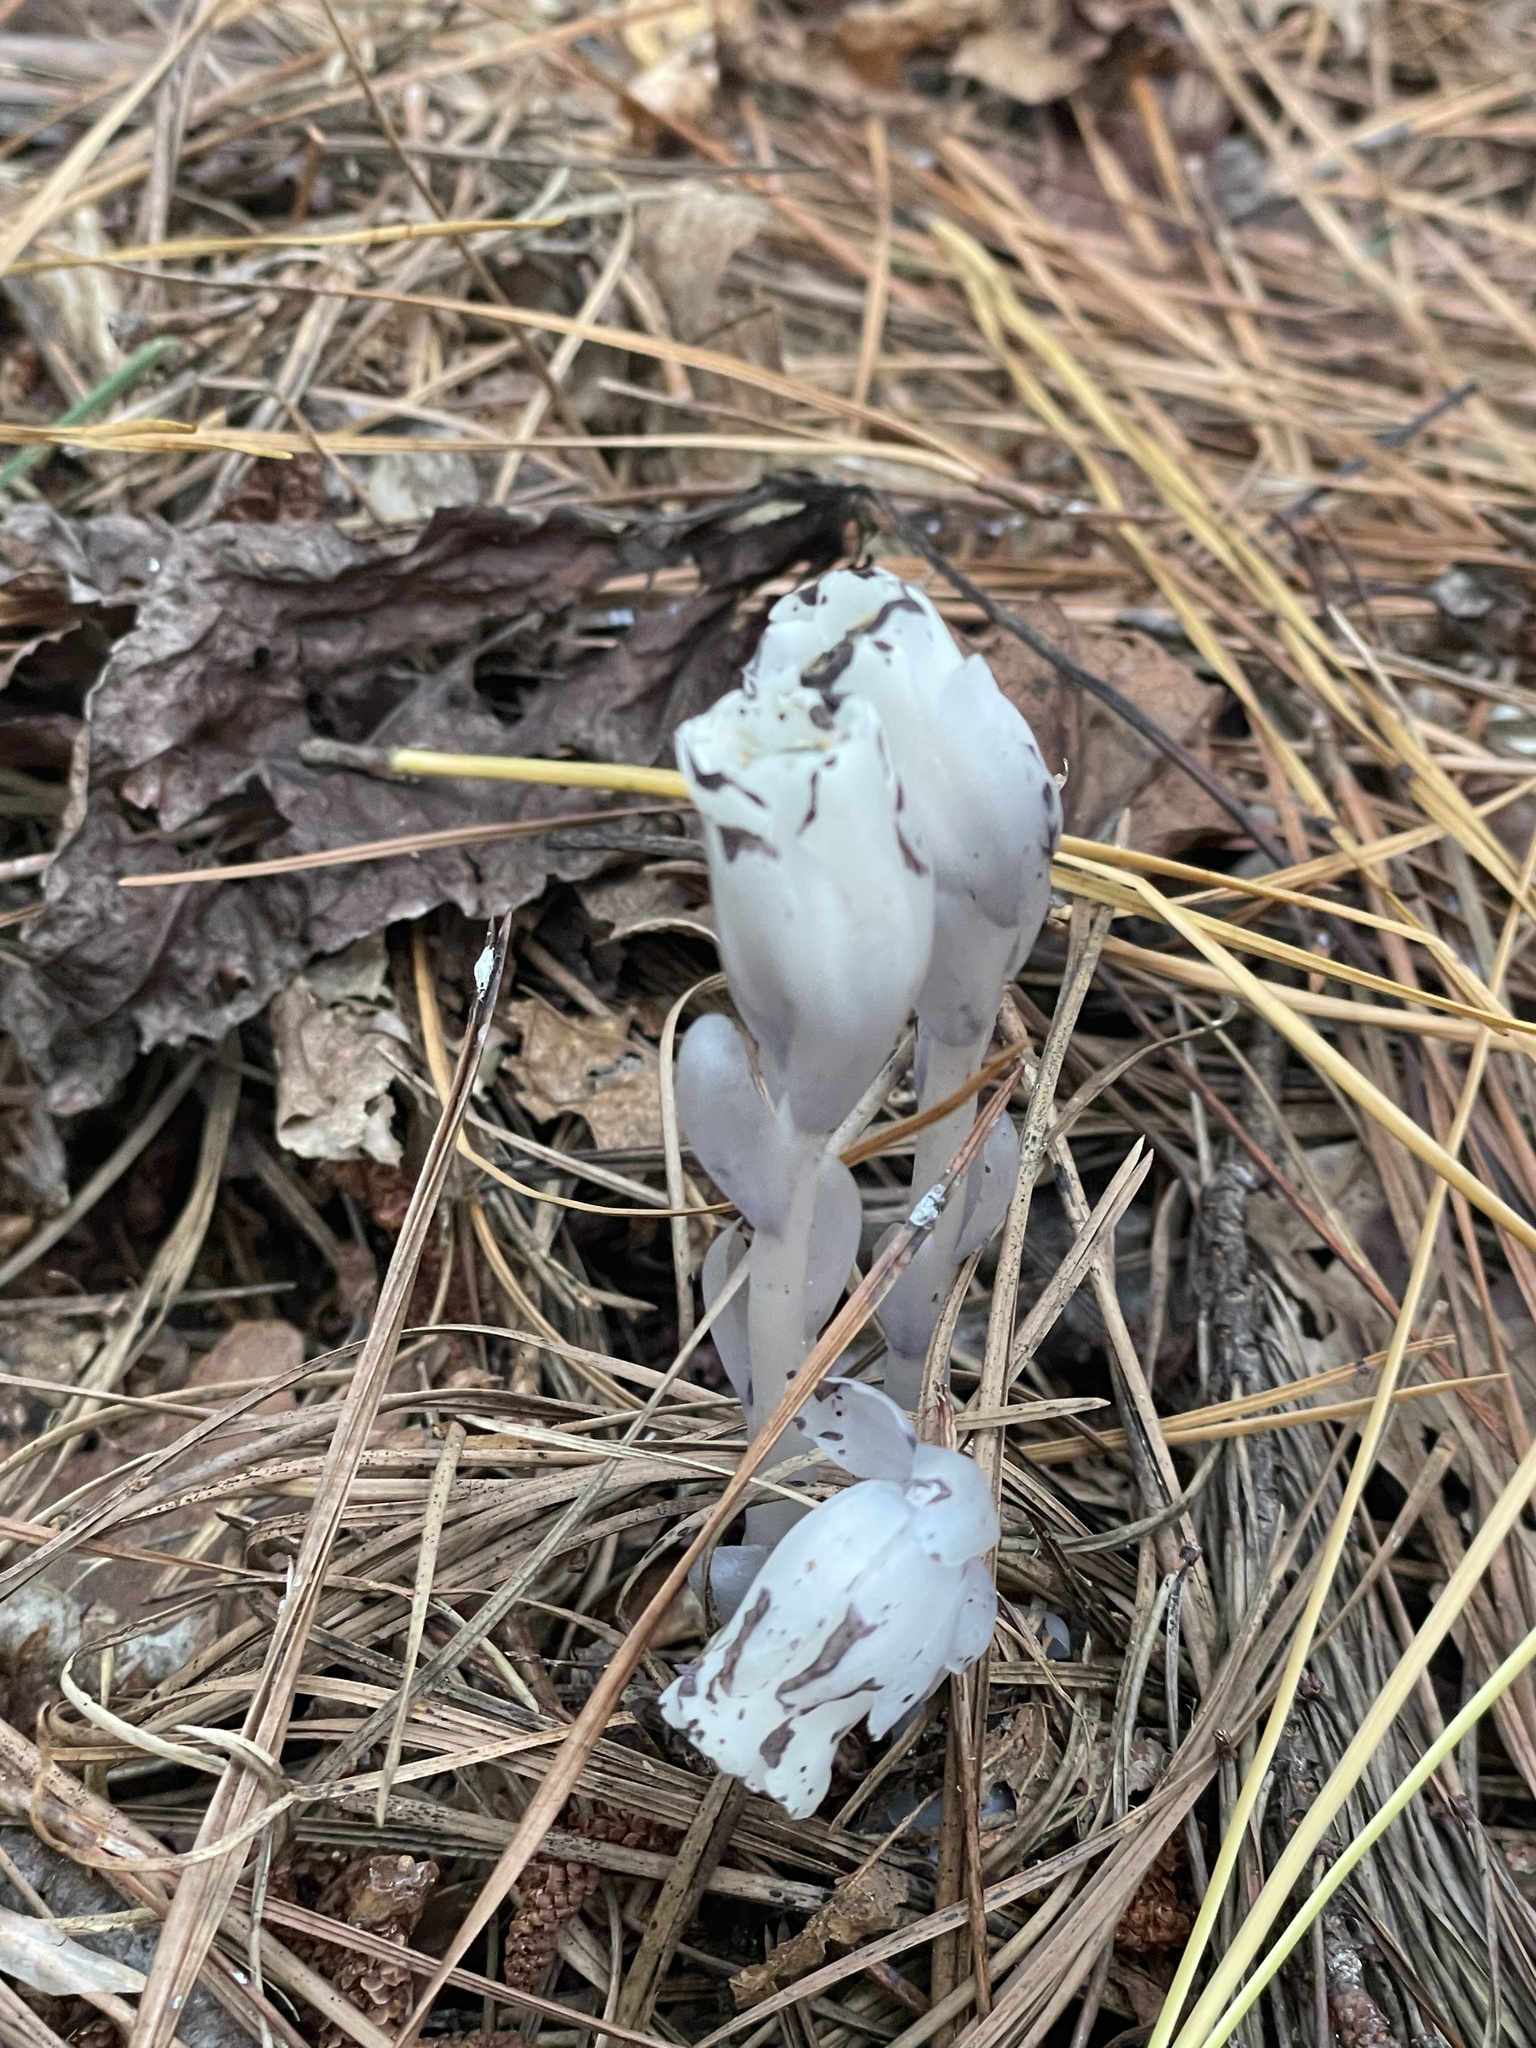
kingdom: Plantae
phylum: Tracheophyta
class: Magnoliopsida
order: Ericales
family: Ericaceae
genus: Monotropa
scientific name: Monotropa uniflora
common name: Convulsion root
